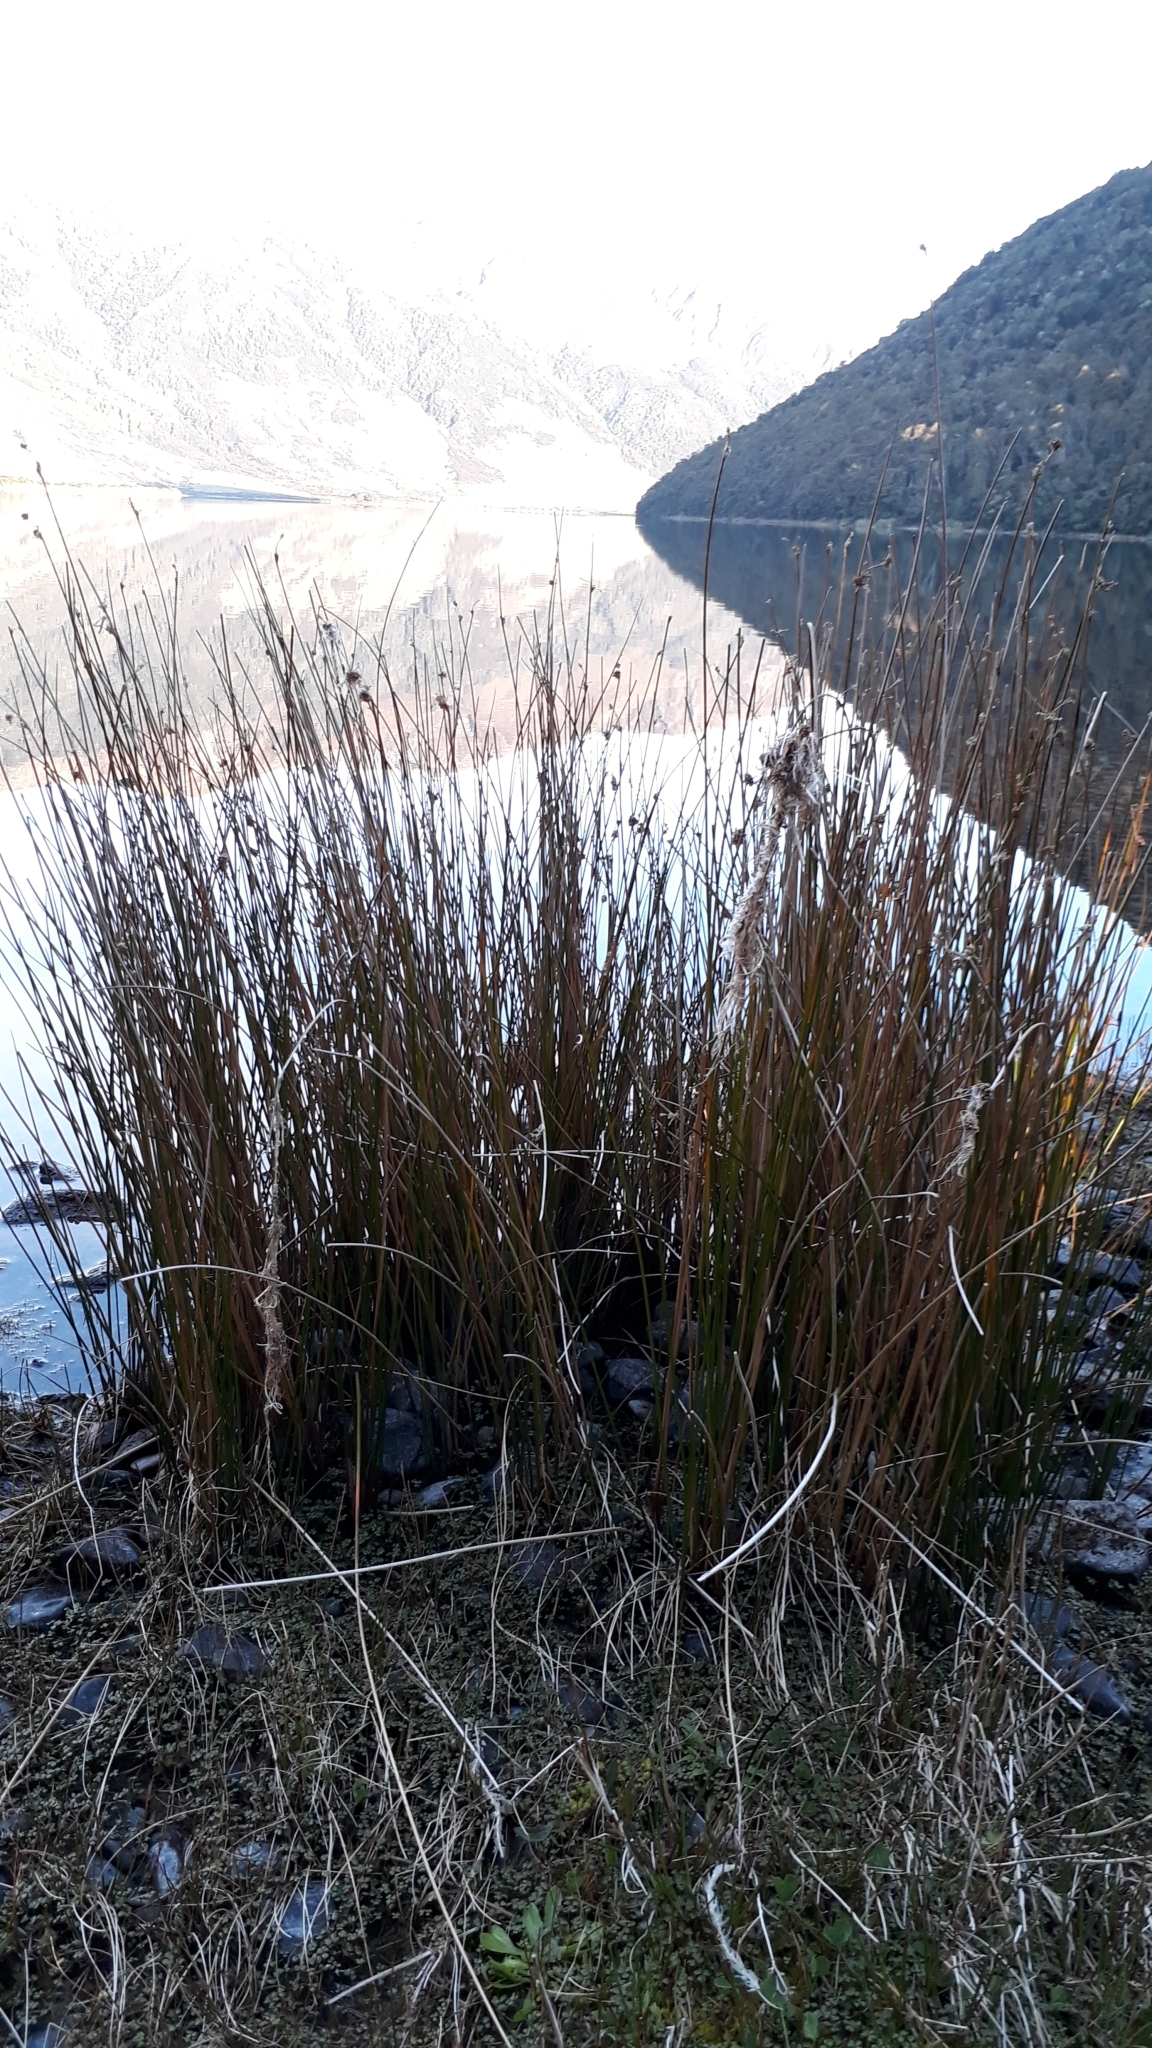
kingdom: Plantae
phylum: Tracheophyta
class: Liliopsida
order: Poales
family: Cyperaceae
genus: Ficinia
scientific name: Ficinia nodosa
